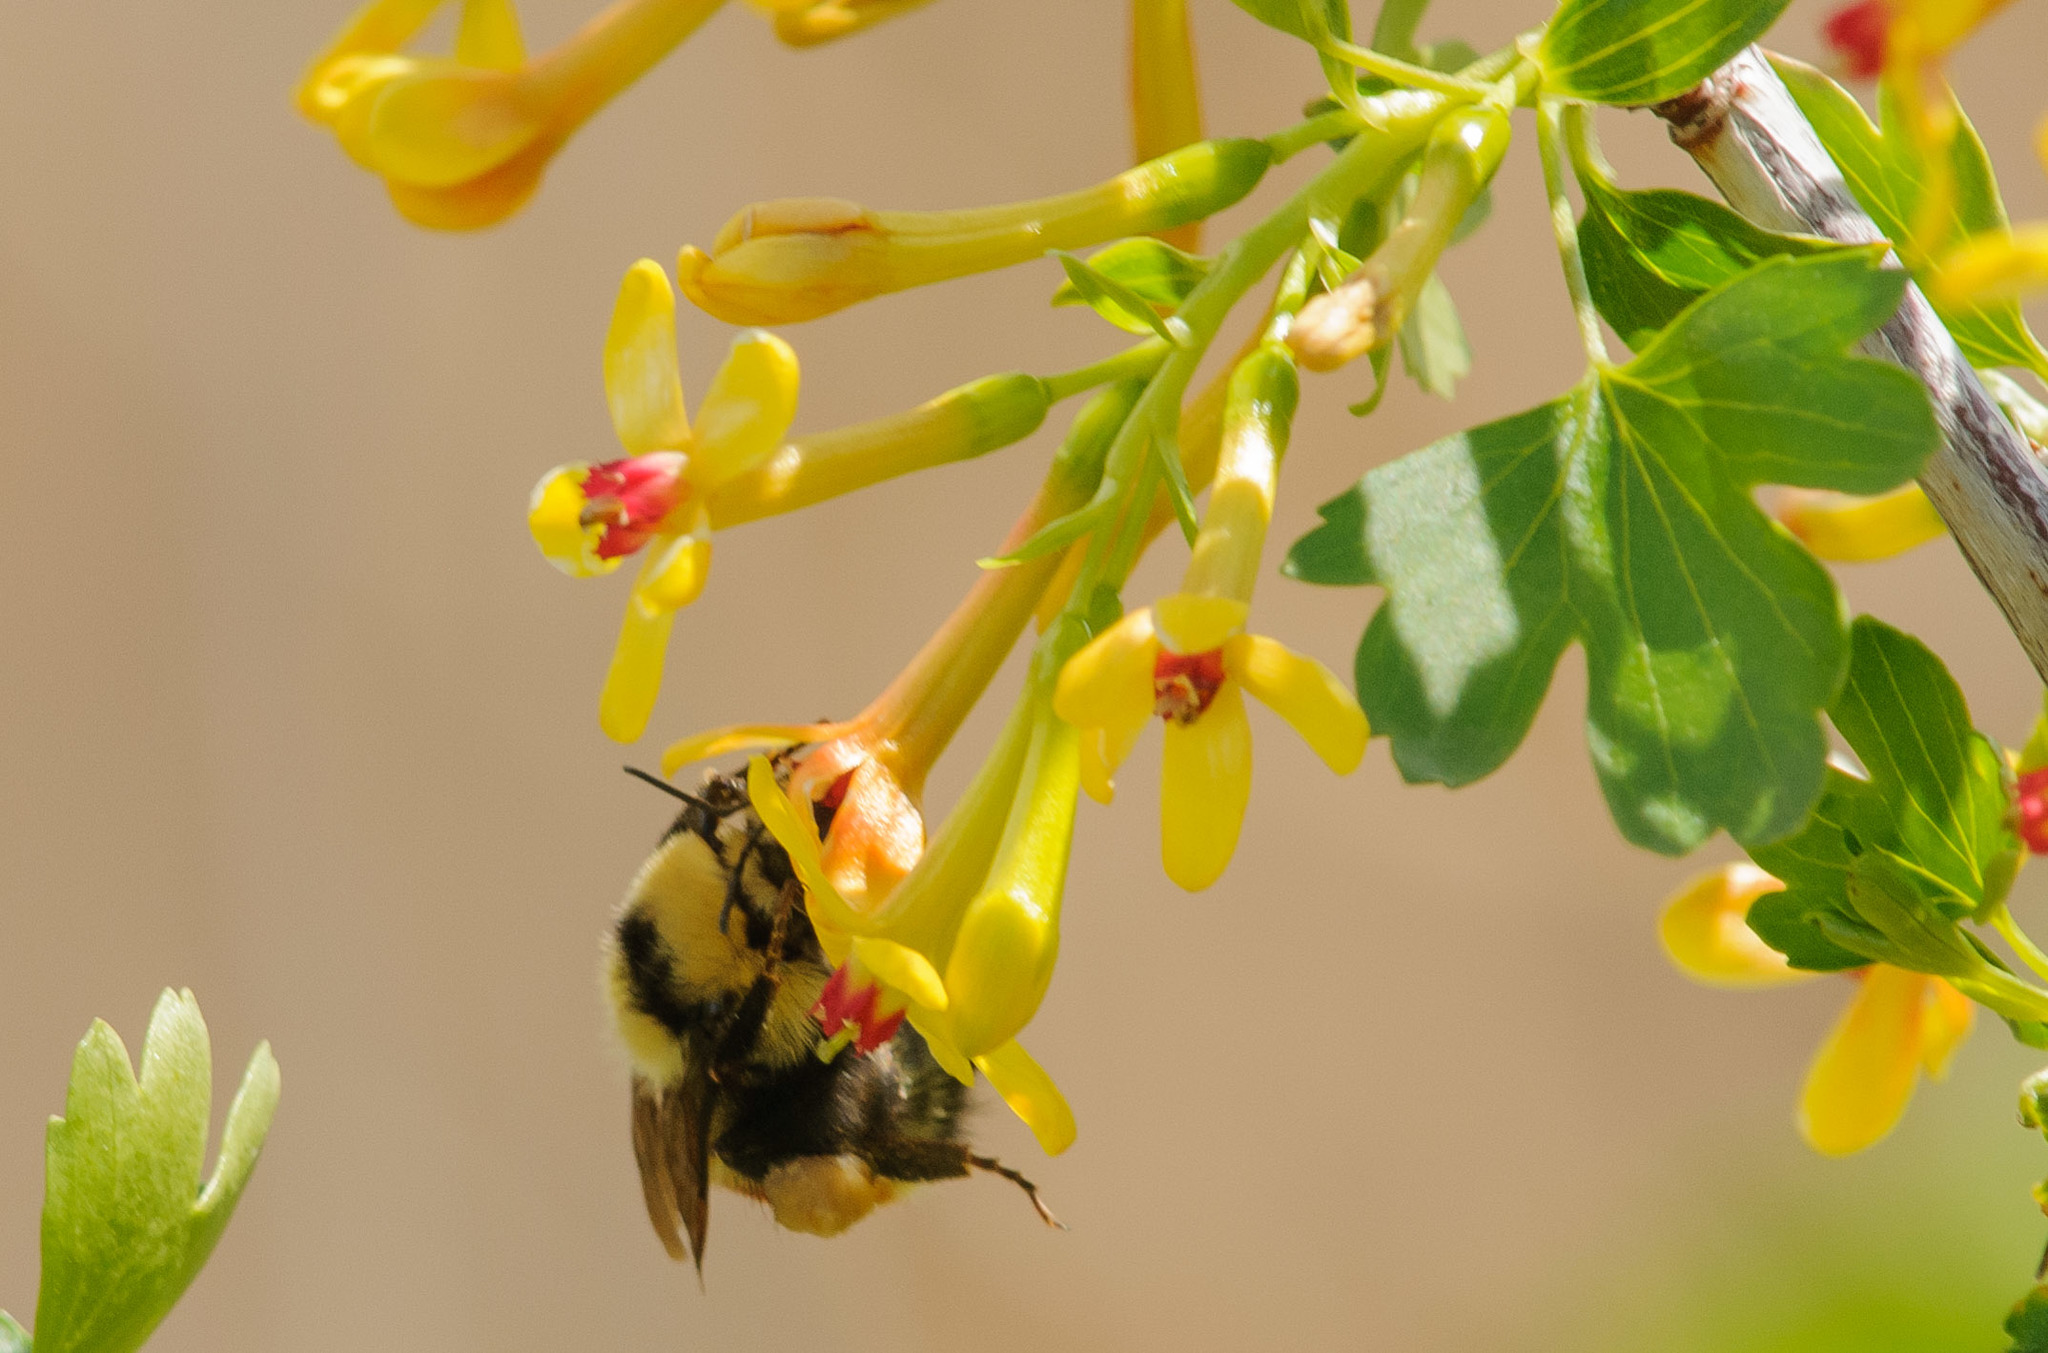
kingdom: Animalia
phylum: Arthropoda
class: Insecta
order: Hymenoptera
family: Apidae
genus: Bombus
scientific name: Bombus huntii
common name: Hunt bumble bee
